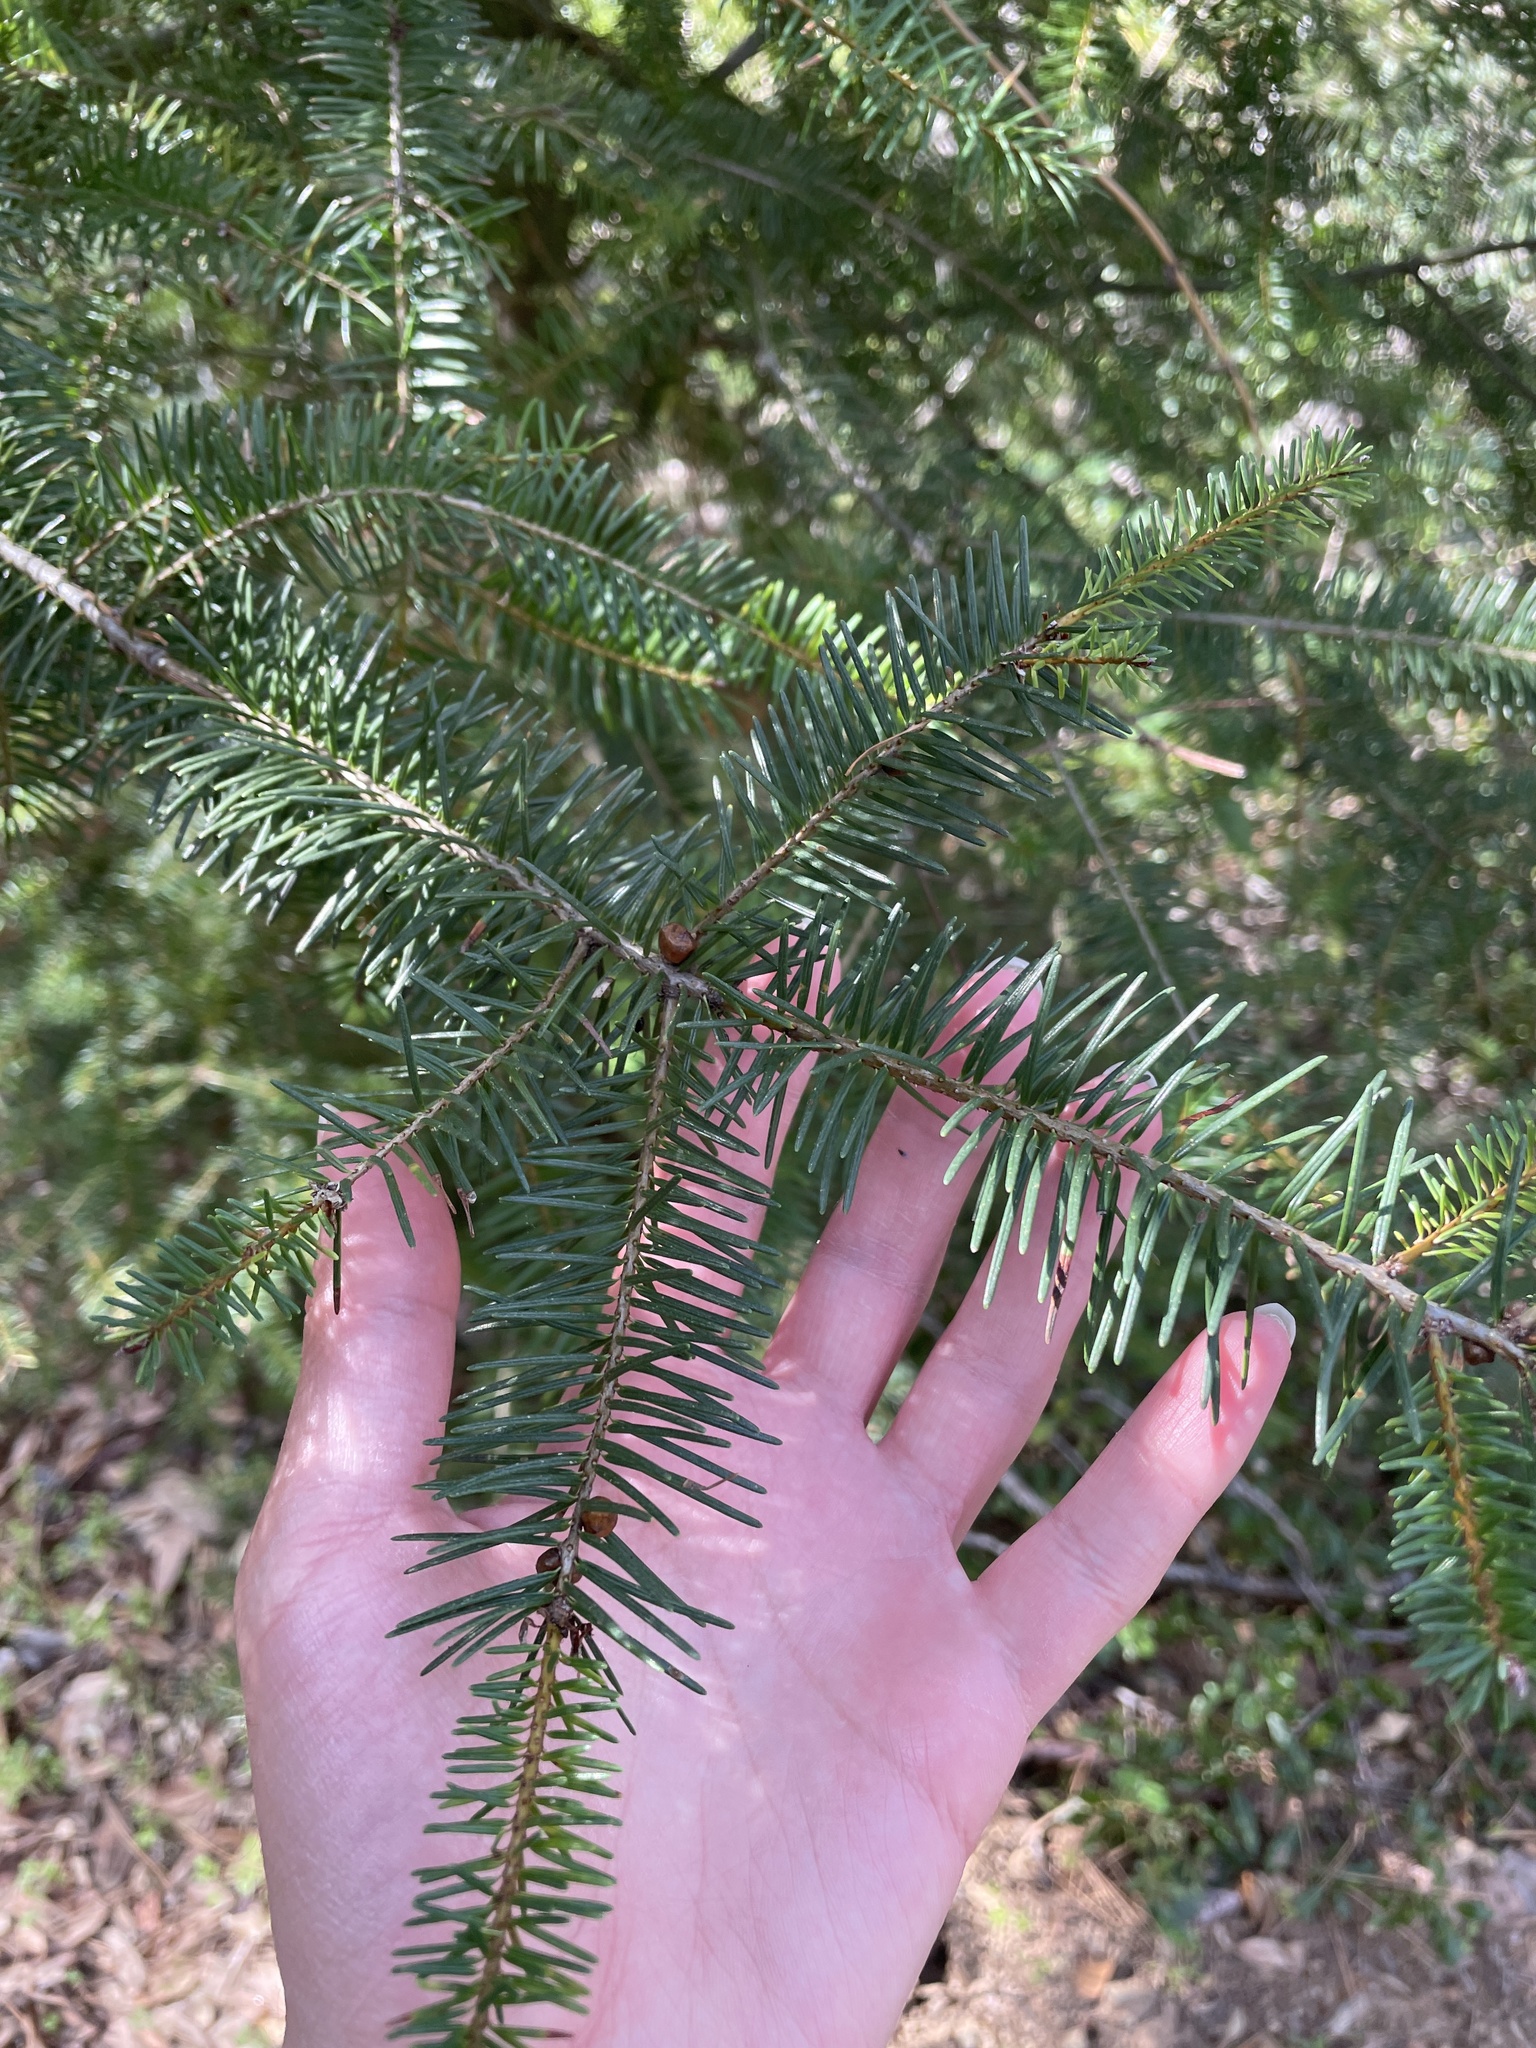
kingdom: Plantae
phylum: Tracheophyta
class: Pinopsida
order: Pinales
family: Pinaceae
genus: Pseudotsuga
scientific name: Pseudotsuga menziesii
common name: Douglas fir
